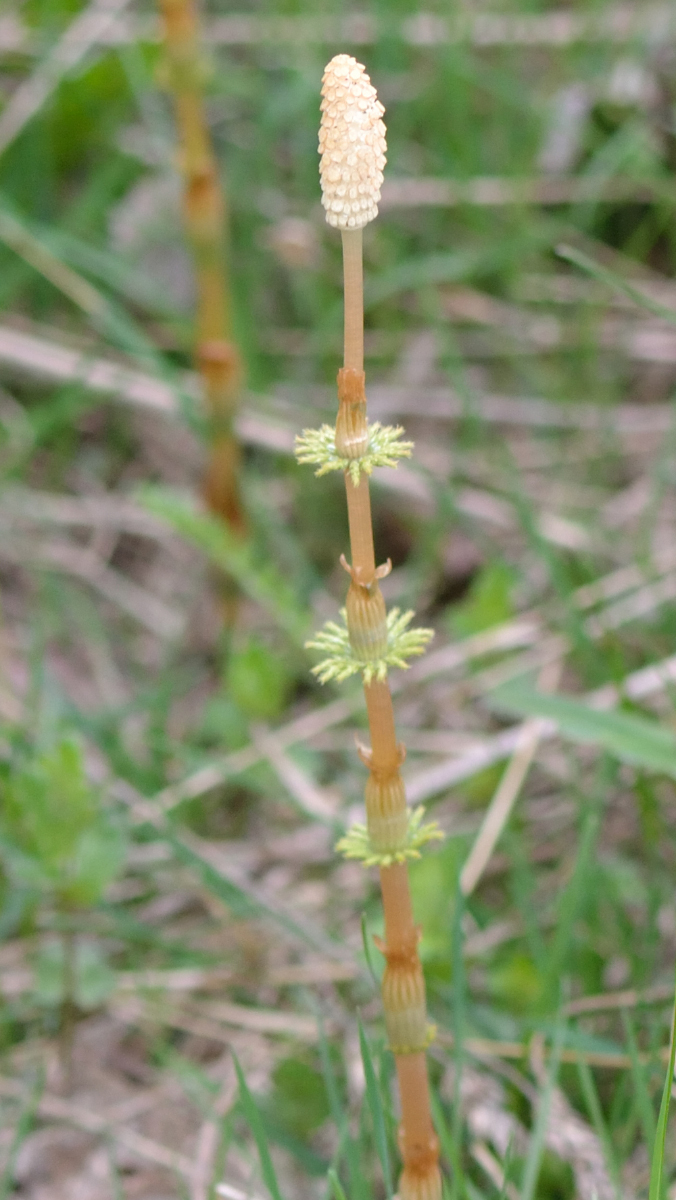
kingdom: Plantae
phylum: Tracheophyta
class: Polypodiopsida
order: Equisetales
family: Equisetaceae
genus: Equisetum
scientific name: Equisetum sylvaticum
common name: Wood horsetail
